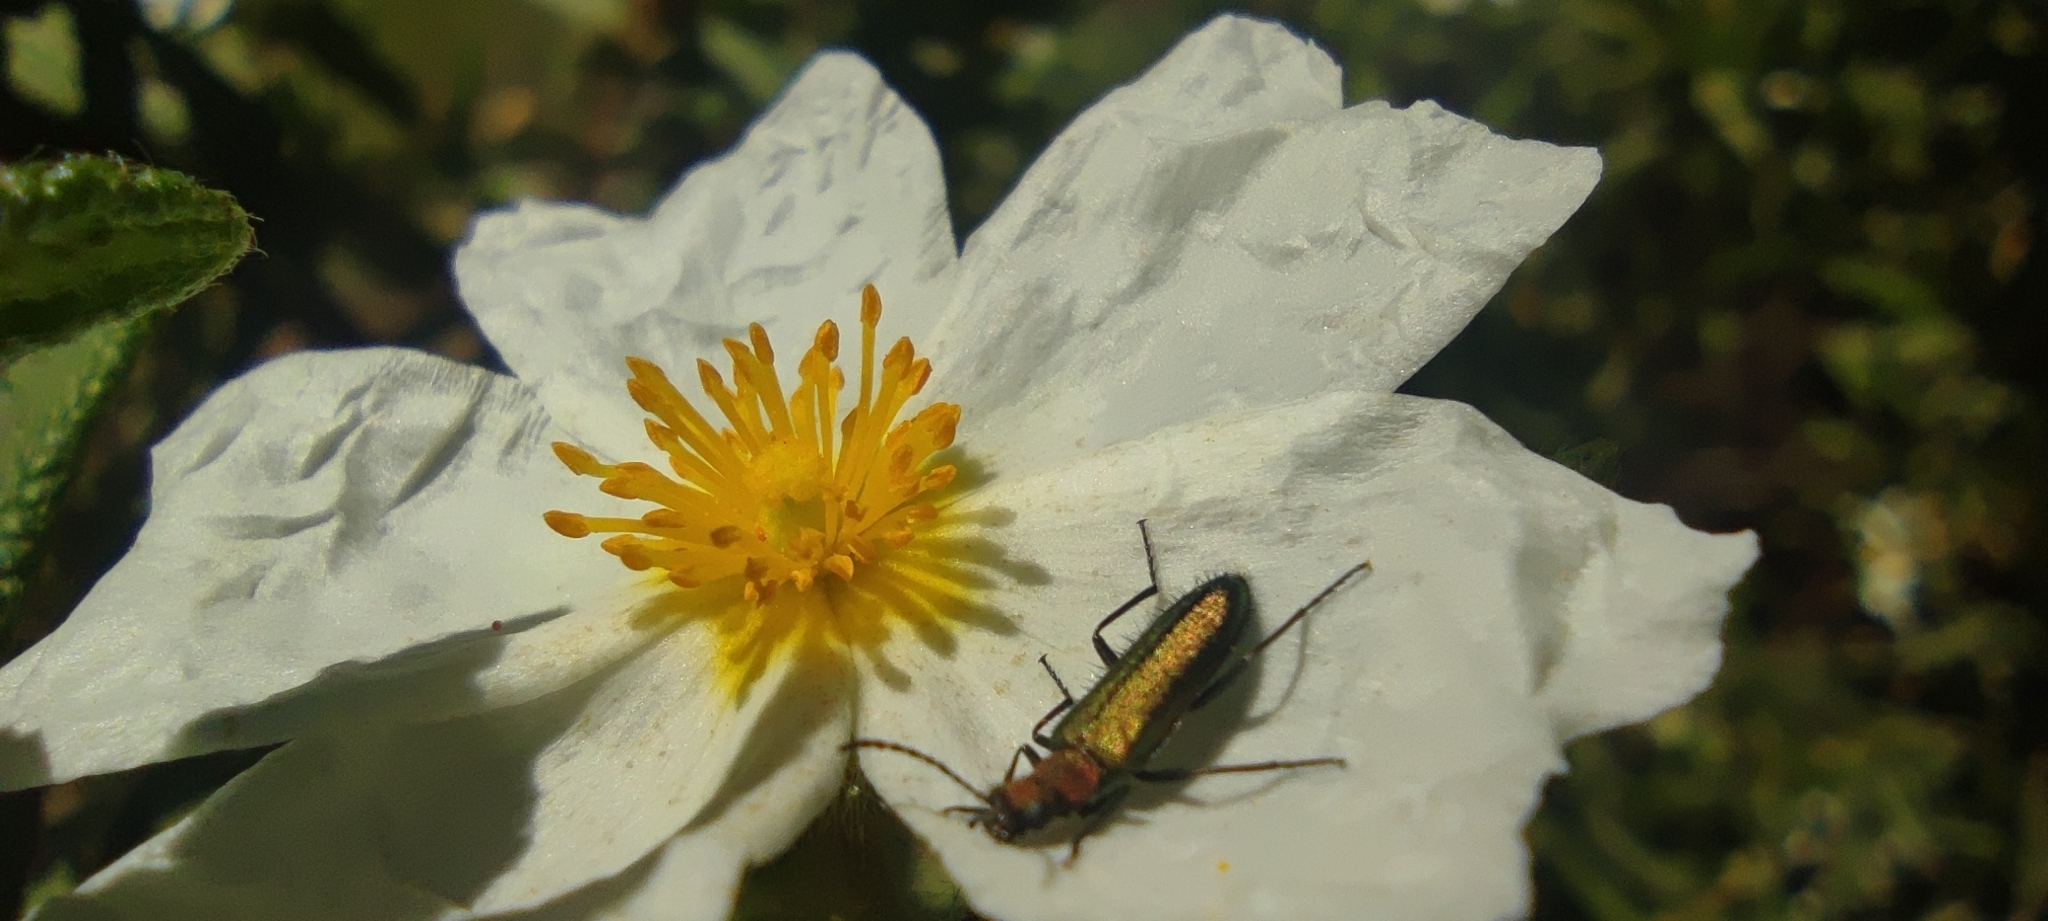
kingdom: Animalia
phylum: Arthropoda
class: Insecta
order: Coleoptera
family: Stenotrachelidae
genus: Stenotrachelus
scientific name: Stenotrachelus aeneus
